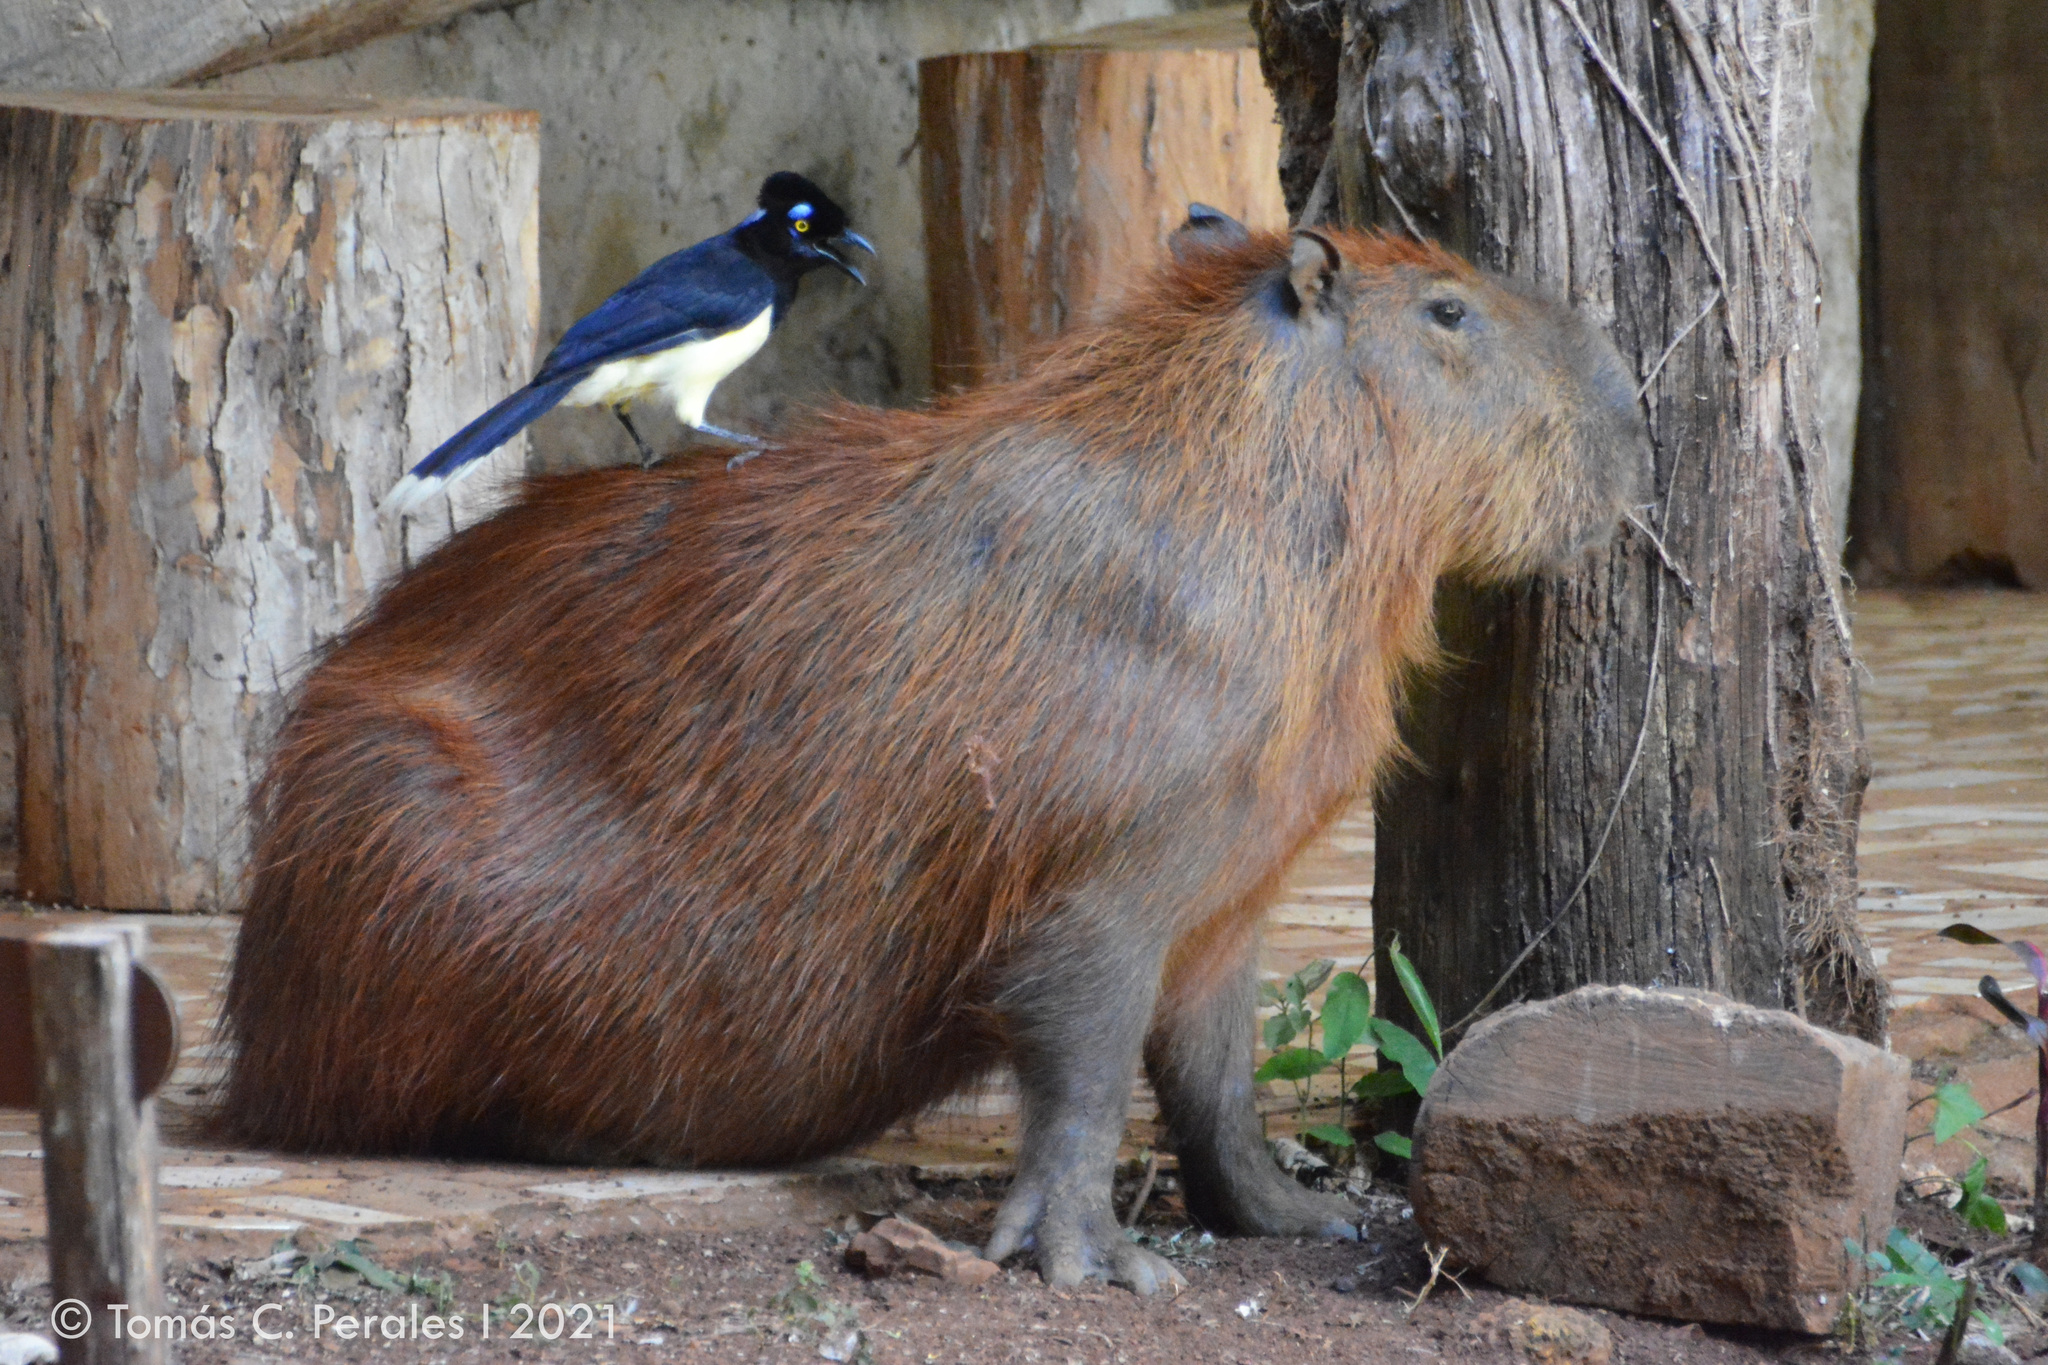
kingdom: Animalia
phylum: Chordata
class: Mammalia
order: Rodentia
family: Caviidae
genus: Hydrochoerus
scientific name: Hydrochoerus hydrochaeris
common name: Capybara
